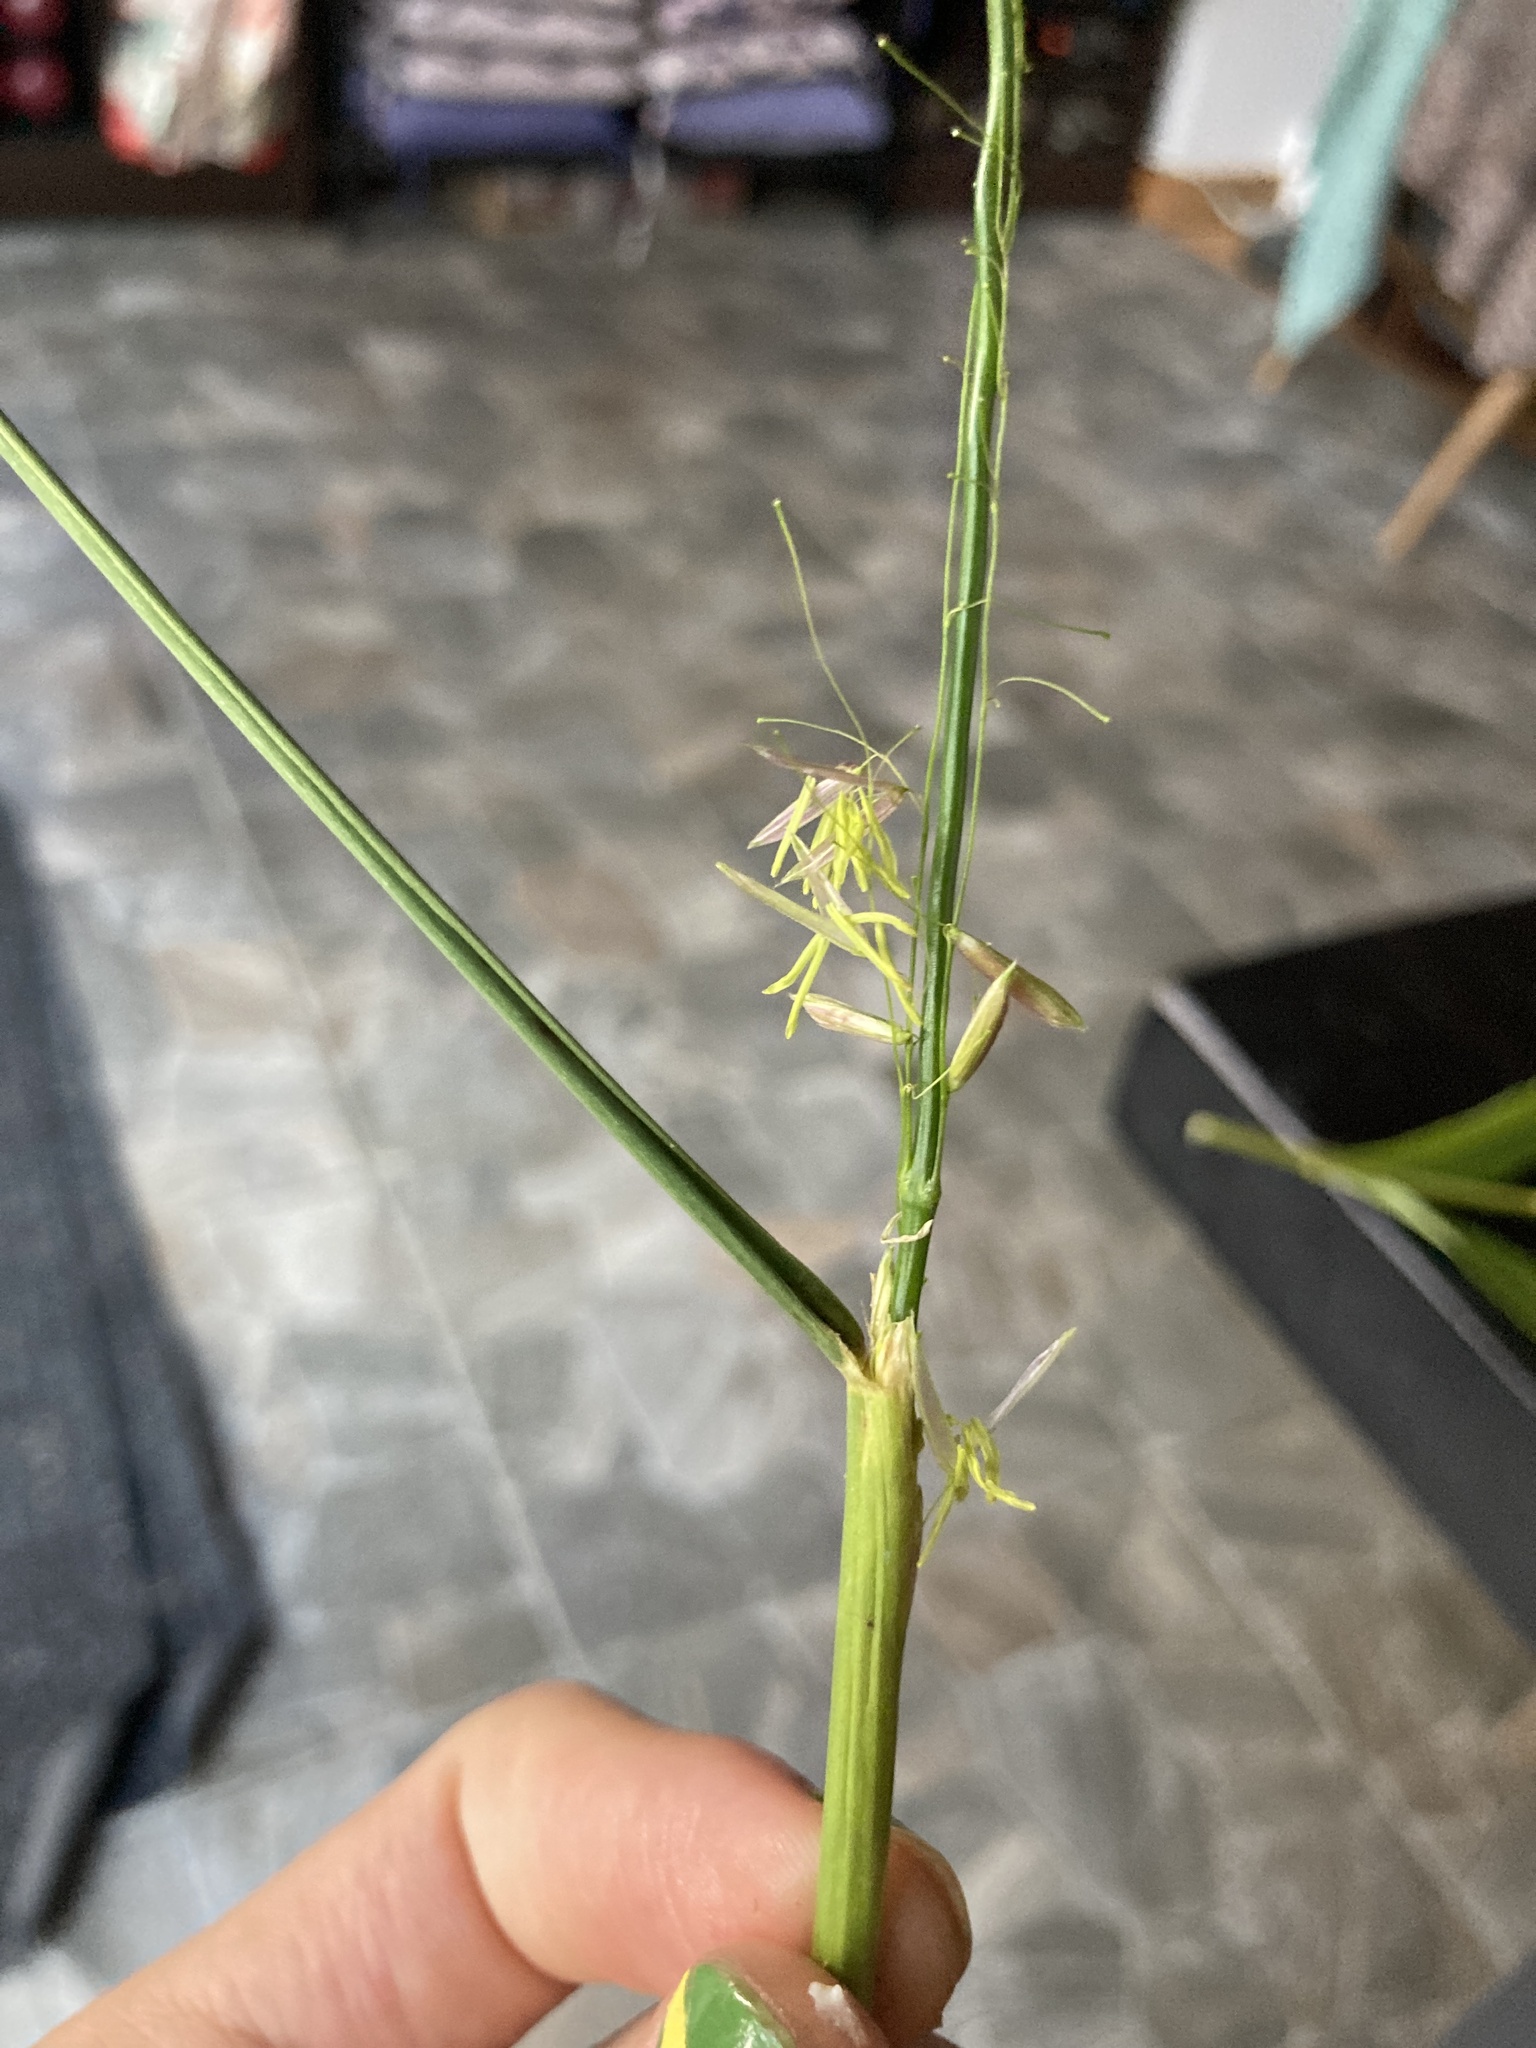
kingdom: Plantae
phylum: Tracheophyta
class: Liliopsida
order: Poales
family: Poaceae
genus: Zizania
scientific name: Zizania palustris
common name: Northern wild rice
